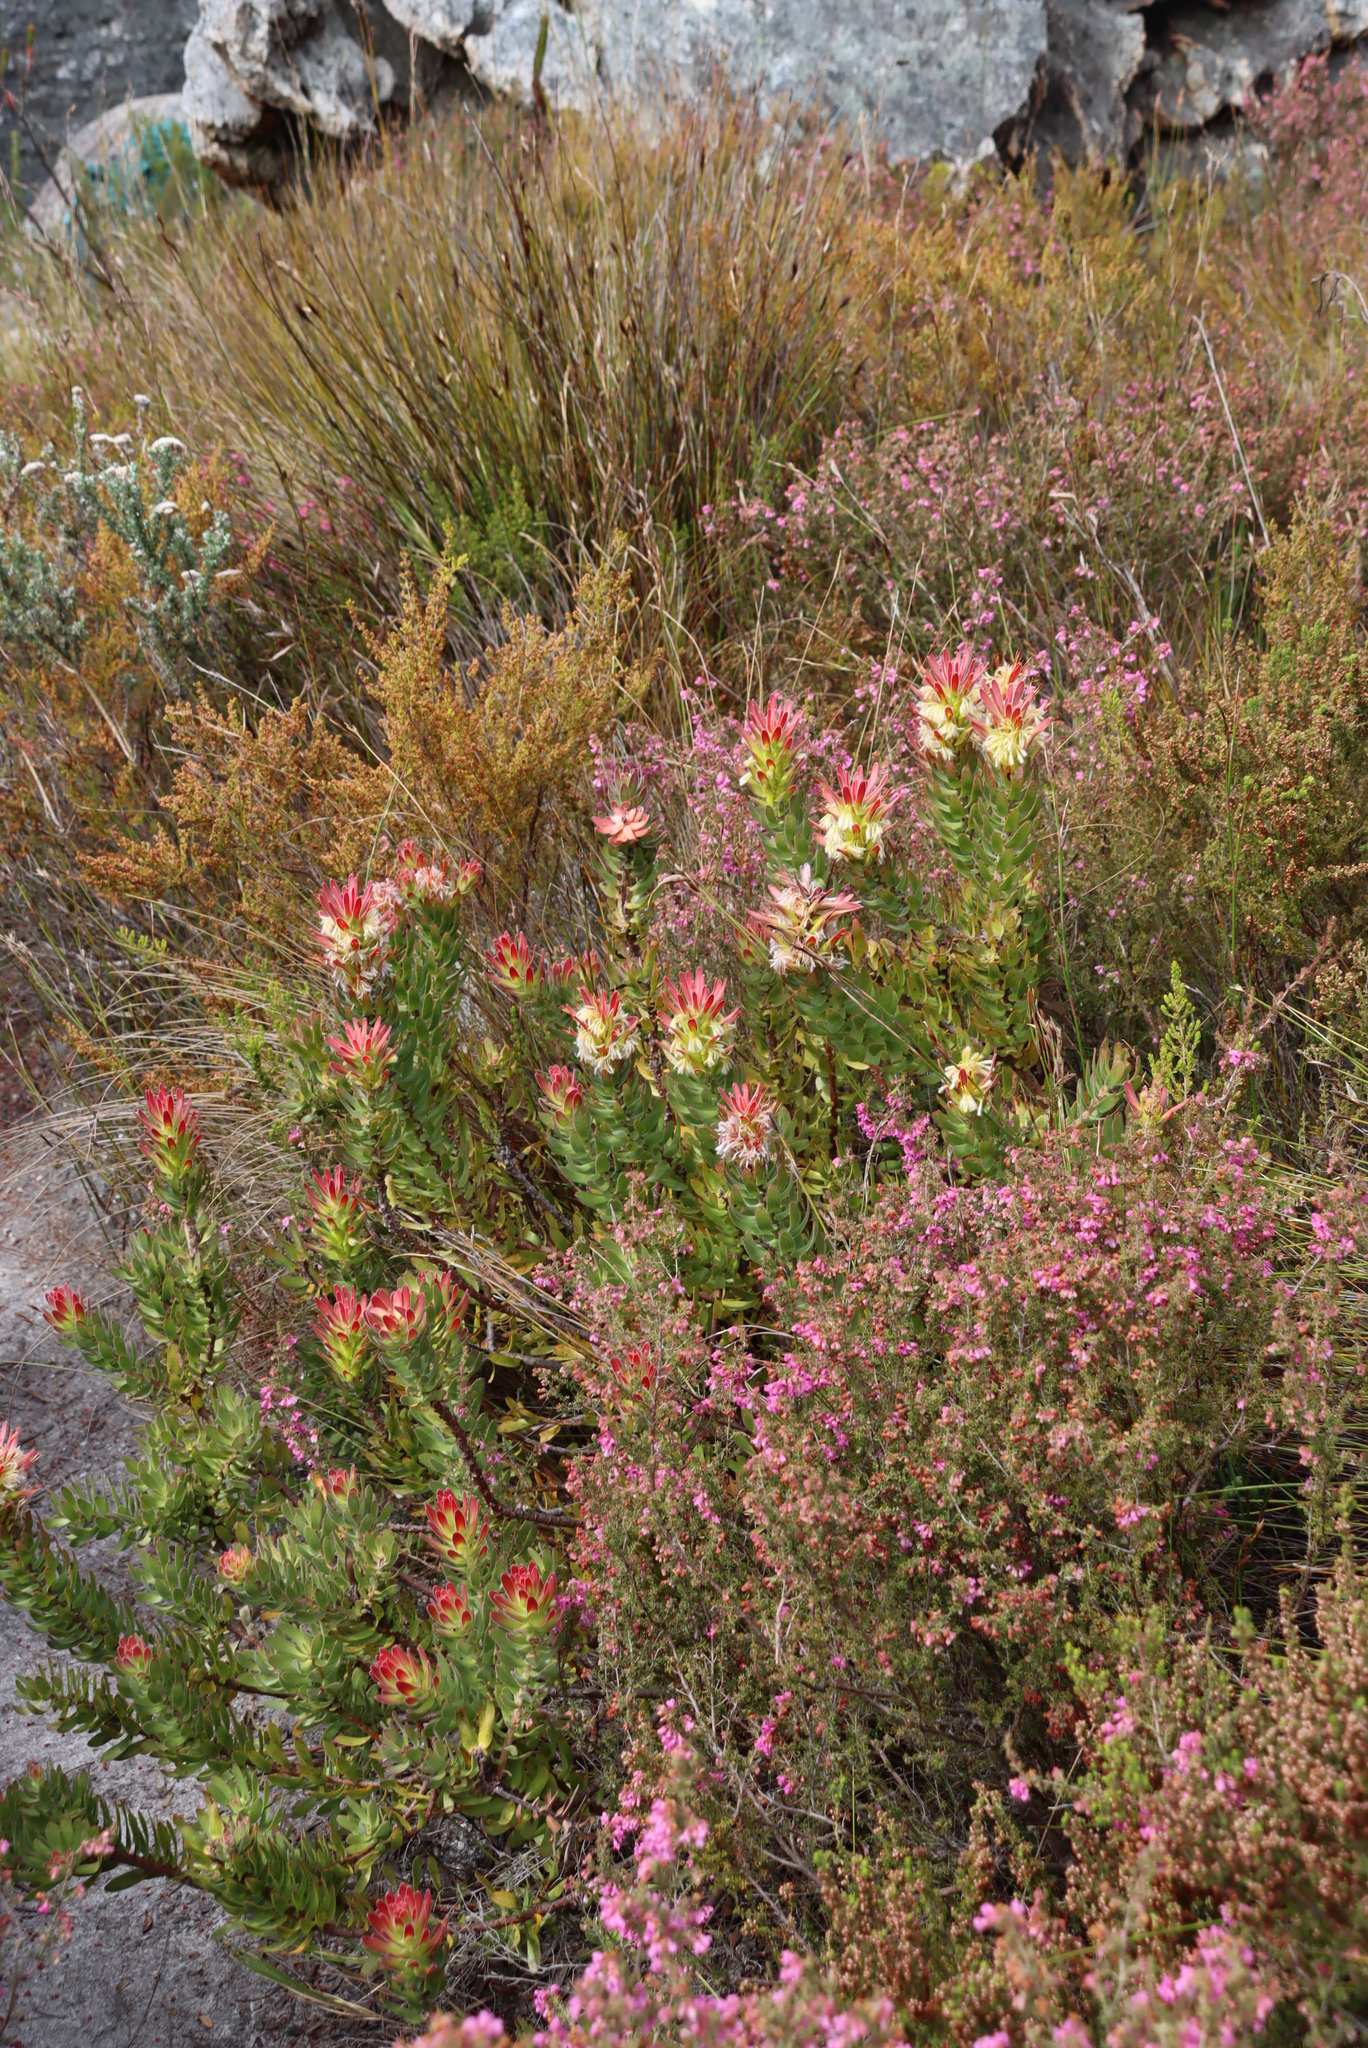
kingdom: Plantae
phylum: Tracheophyta
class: Magnoliopsida
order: Proteales
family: Proteaceae
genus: Mimetes
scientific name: Mimetes cucullatus
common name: Common pagoda
